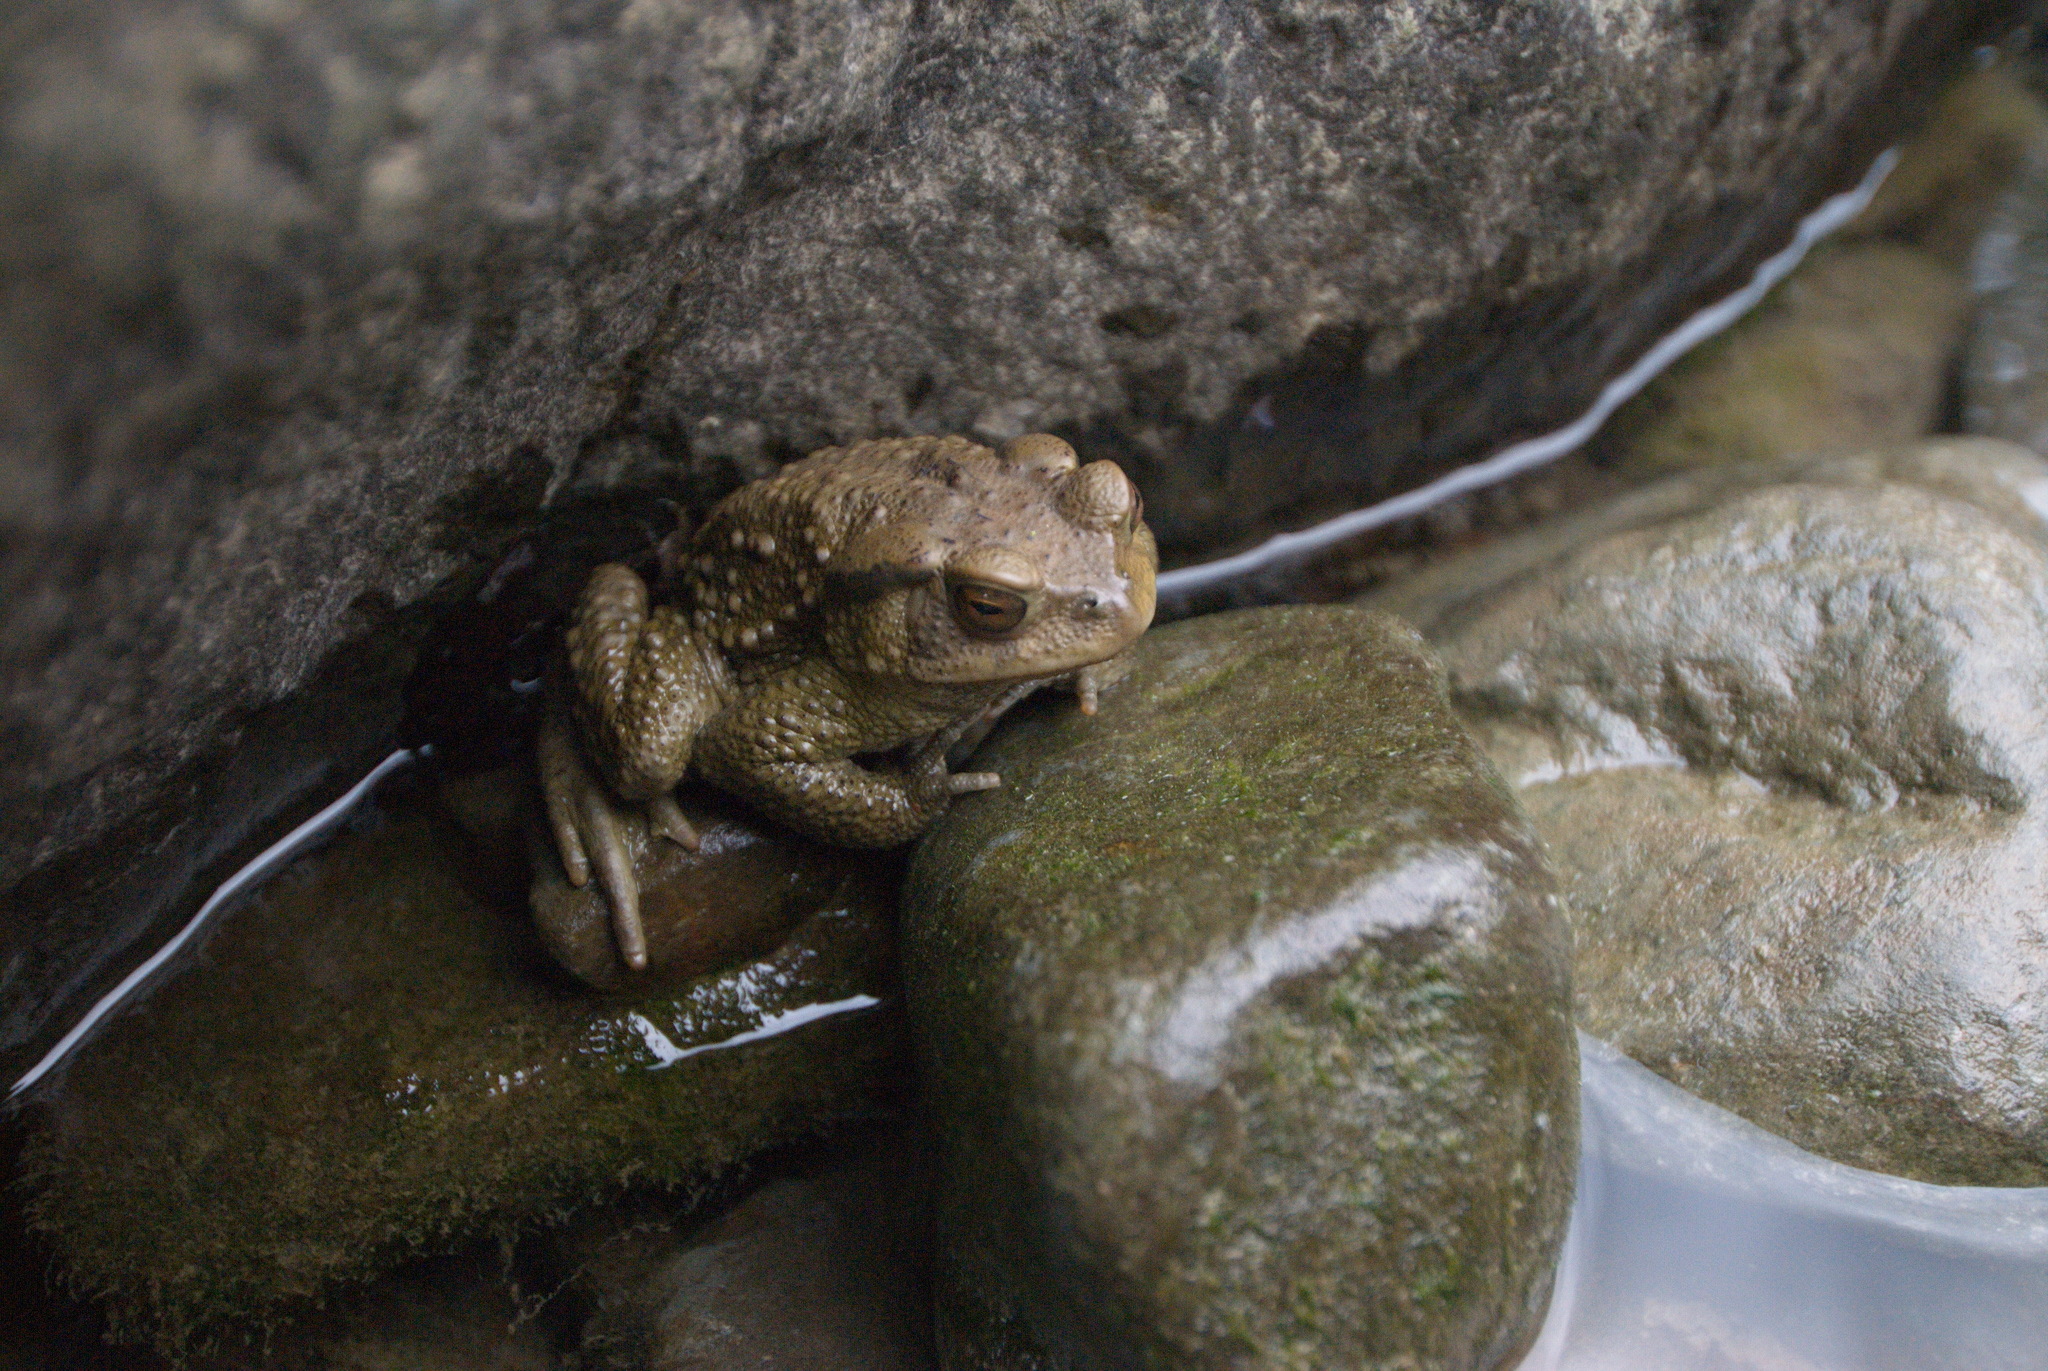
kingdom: Animalia
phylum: Chordata
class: Amphibia
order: Anura
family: Bufonidae
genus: Bufo
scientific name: Bufo bankorensis
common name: Bankor toad
